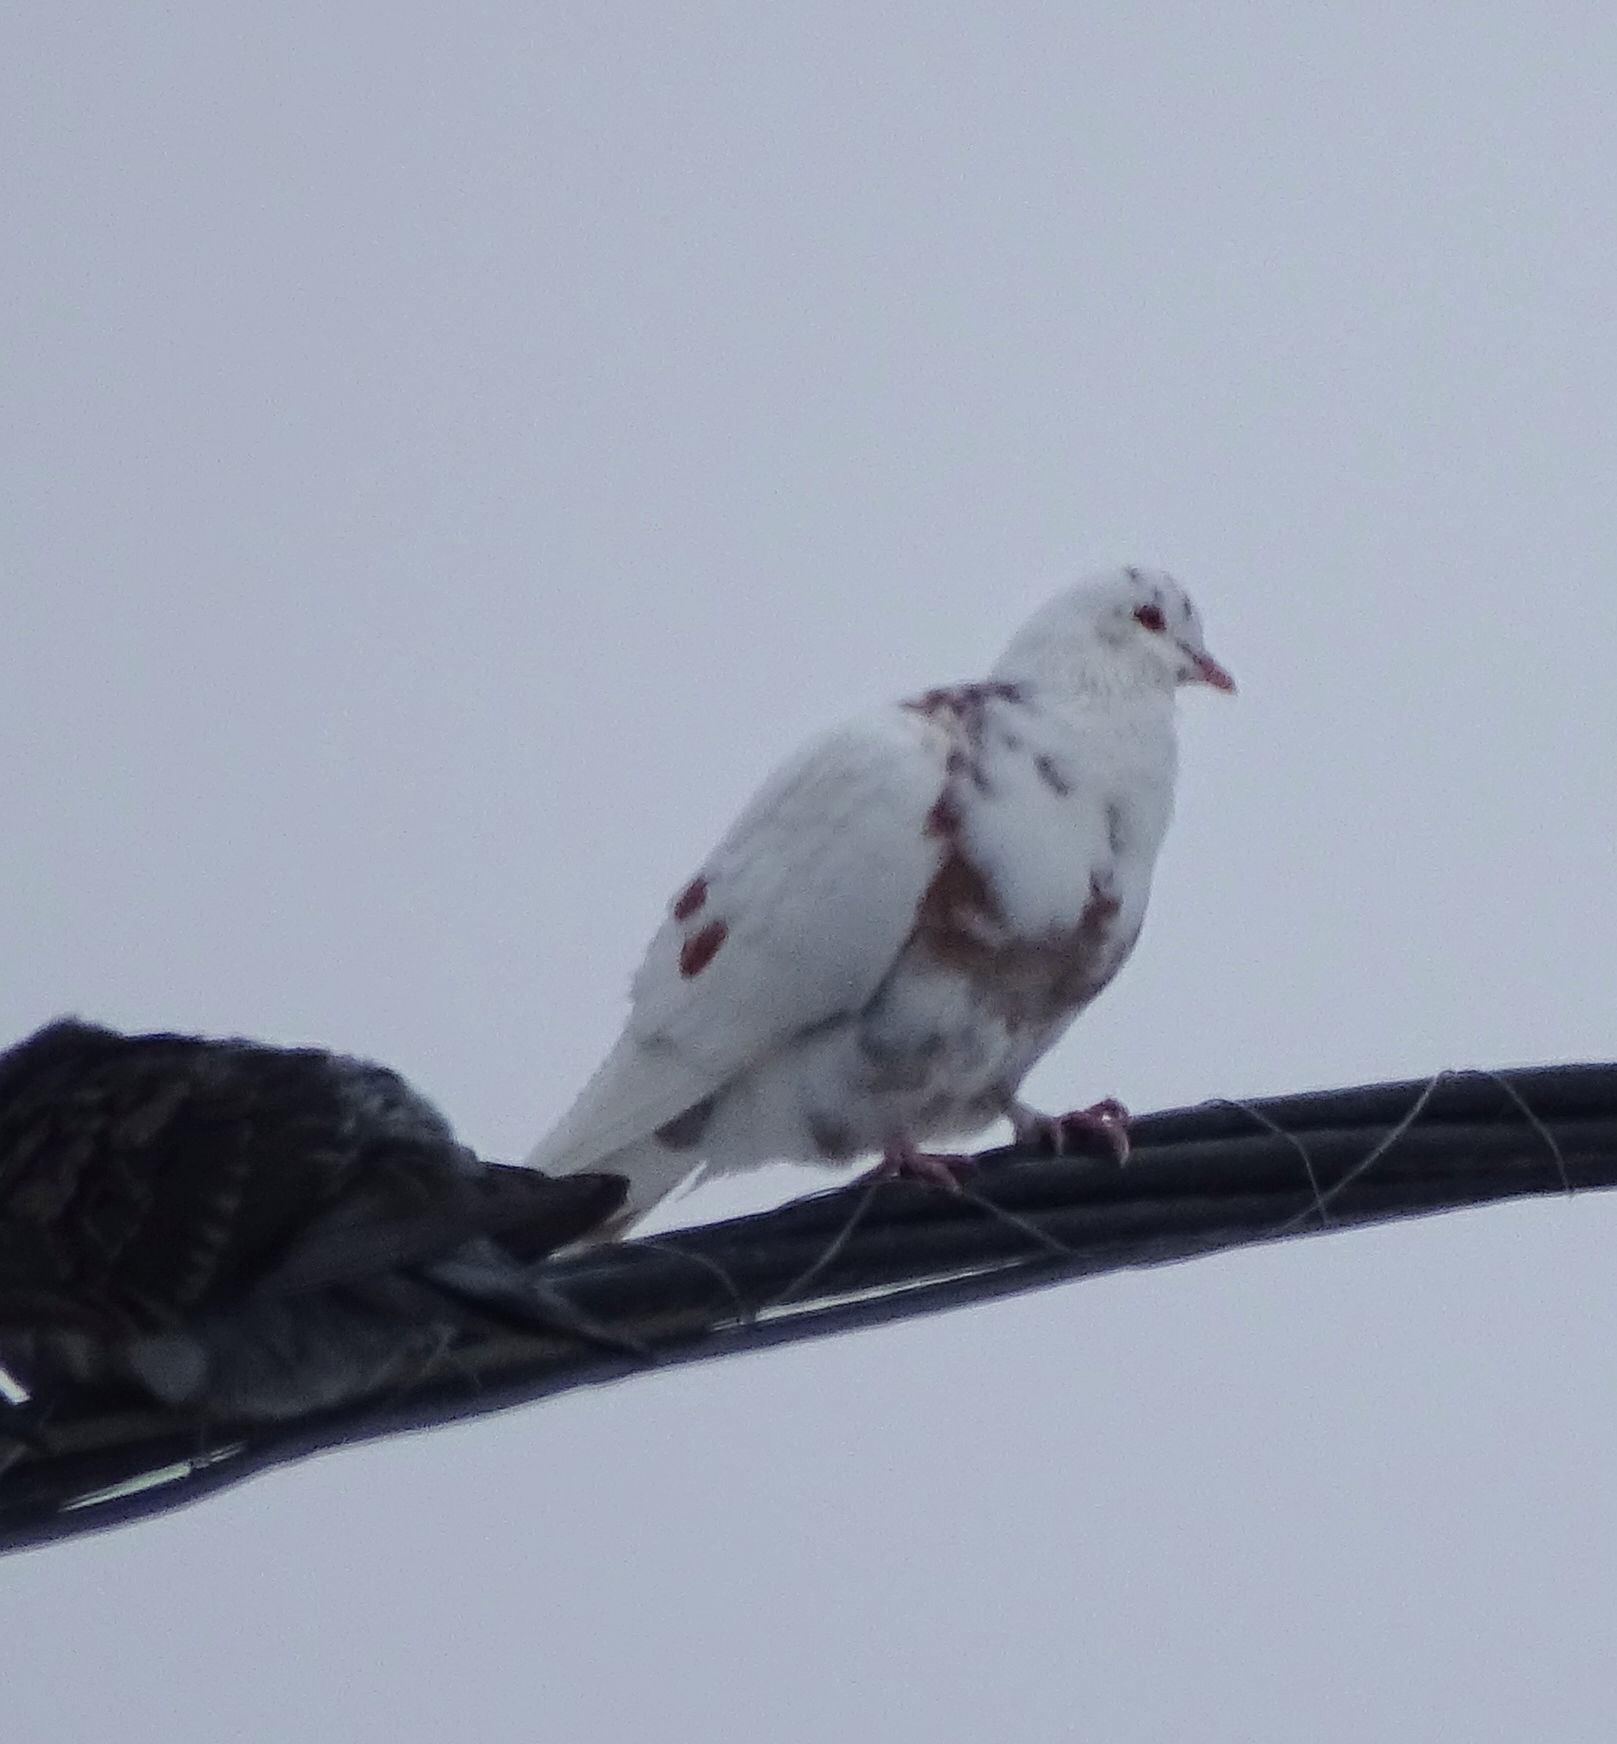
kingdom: Animalia
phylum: Chordata
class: Aves
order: Columbiformes
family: Columbidae
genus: Columba
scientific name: Columba livia
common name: Rock pigeon
